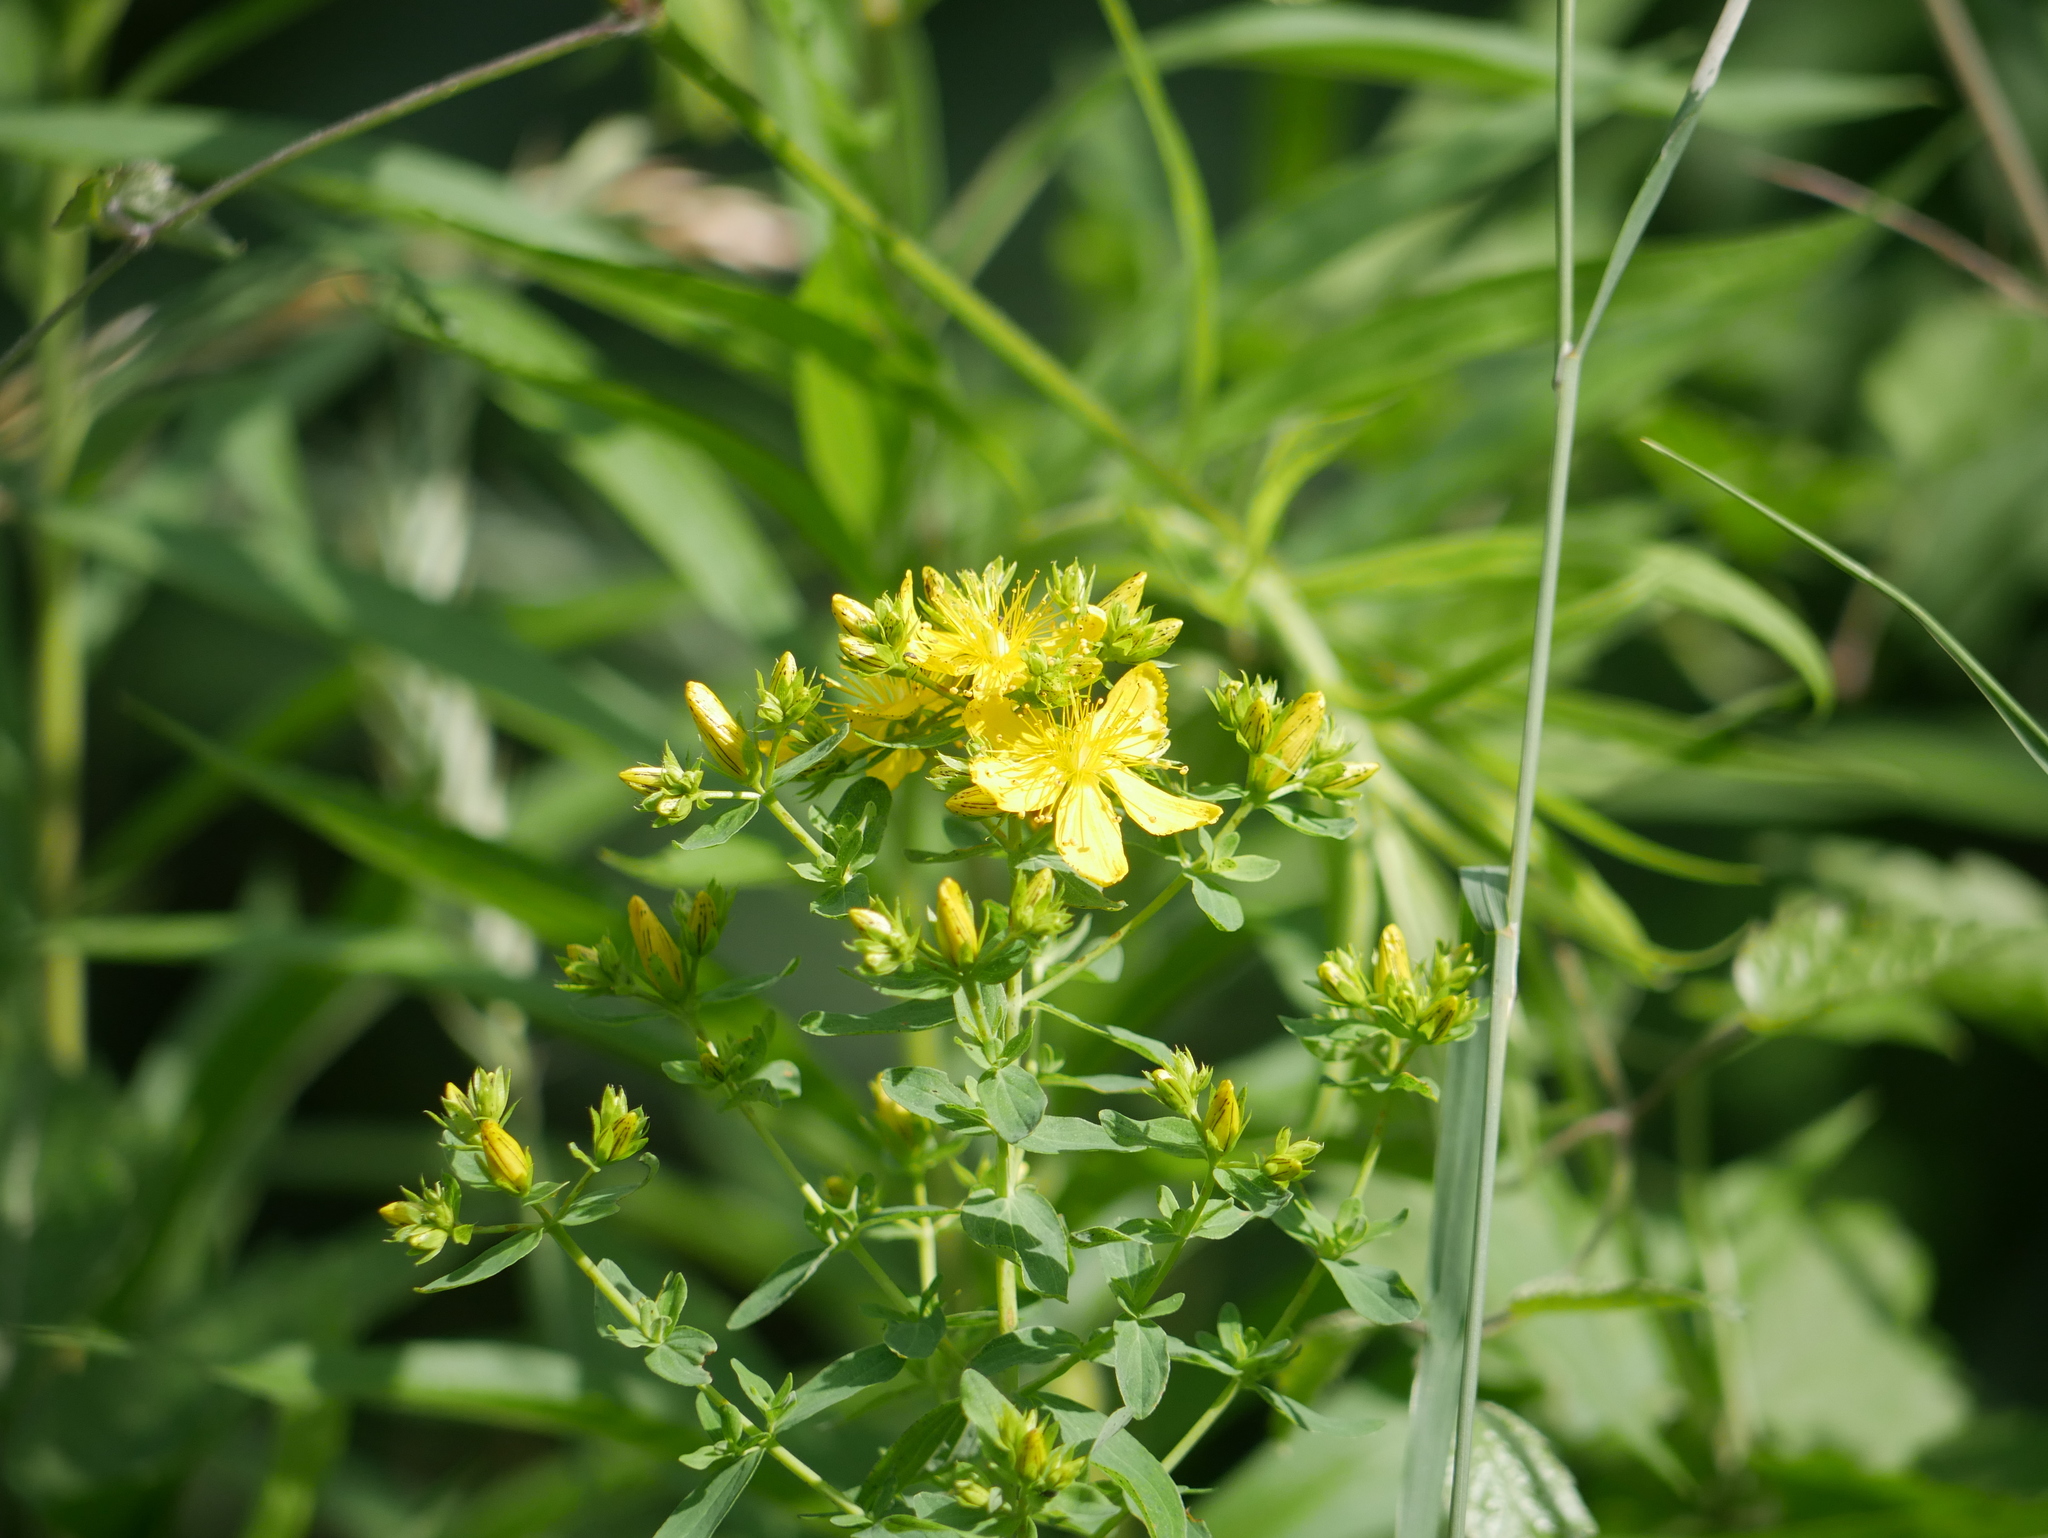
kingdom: Plantae
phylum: Tracheophyta
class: Magnoliopsida
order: Malpighiales
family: Hypericaceae
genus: Hypericum
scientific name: Hypericum perforatum
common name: Common st. johnswort
